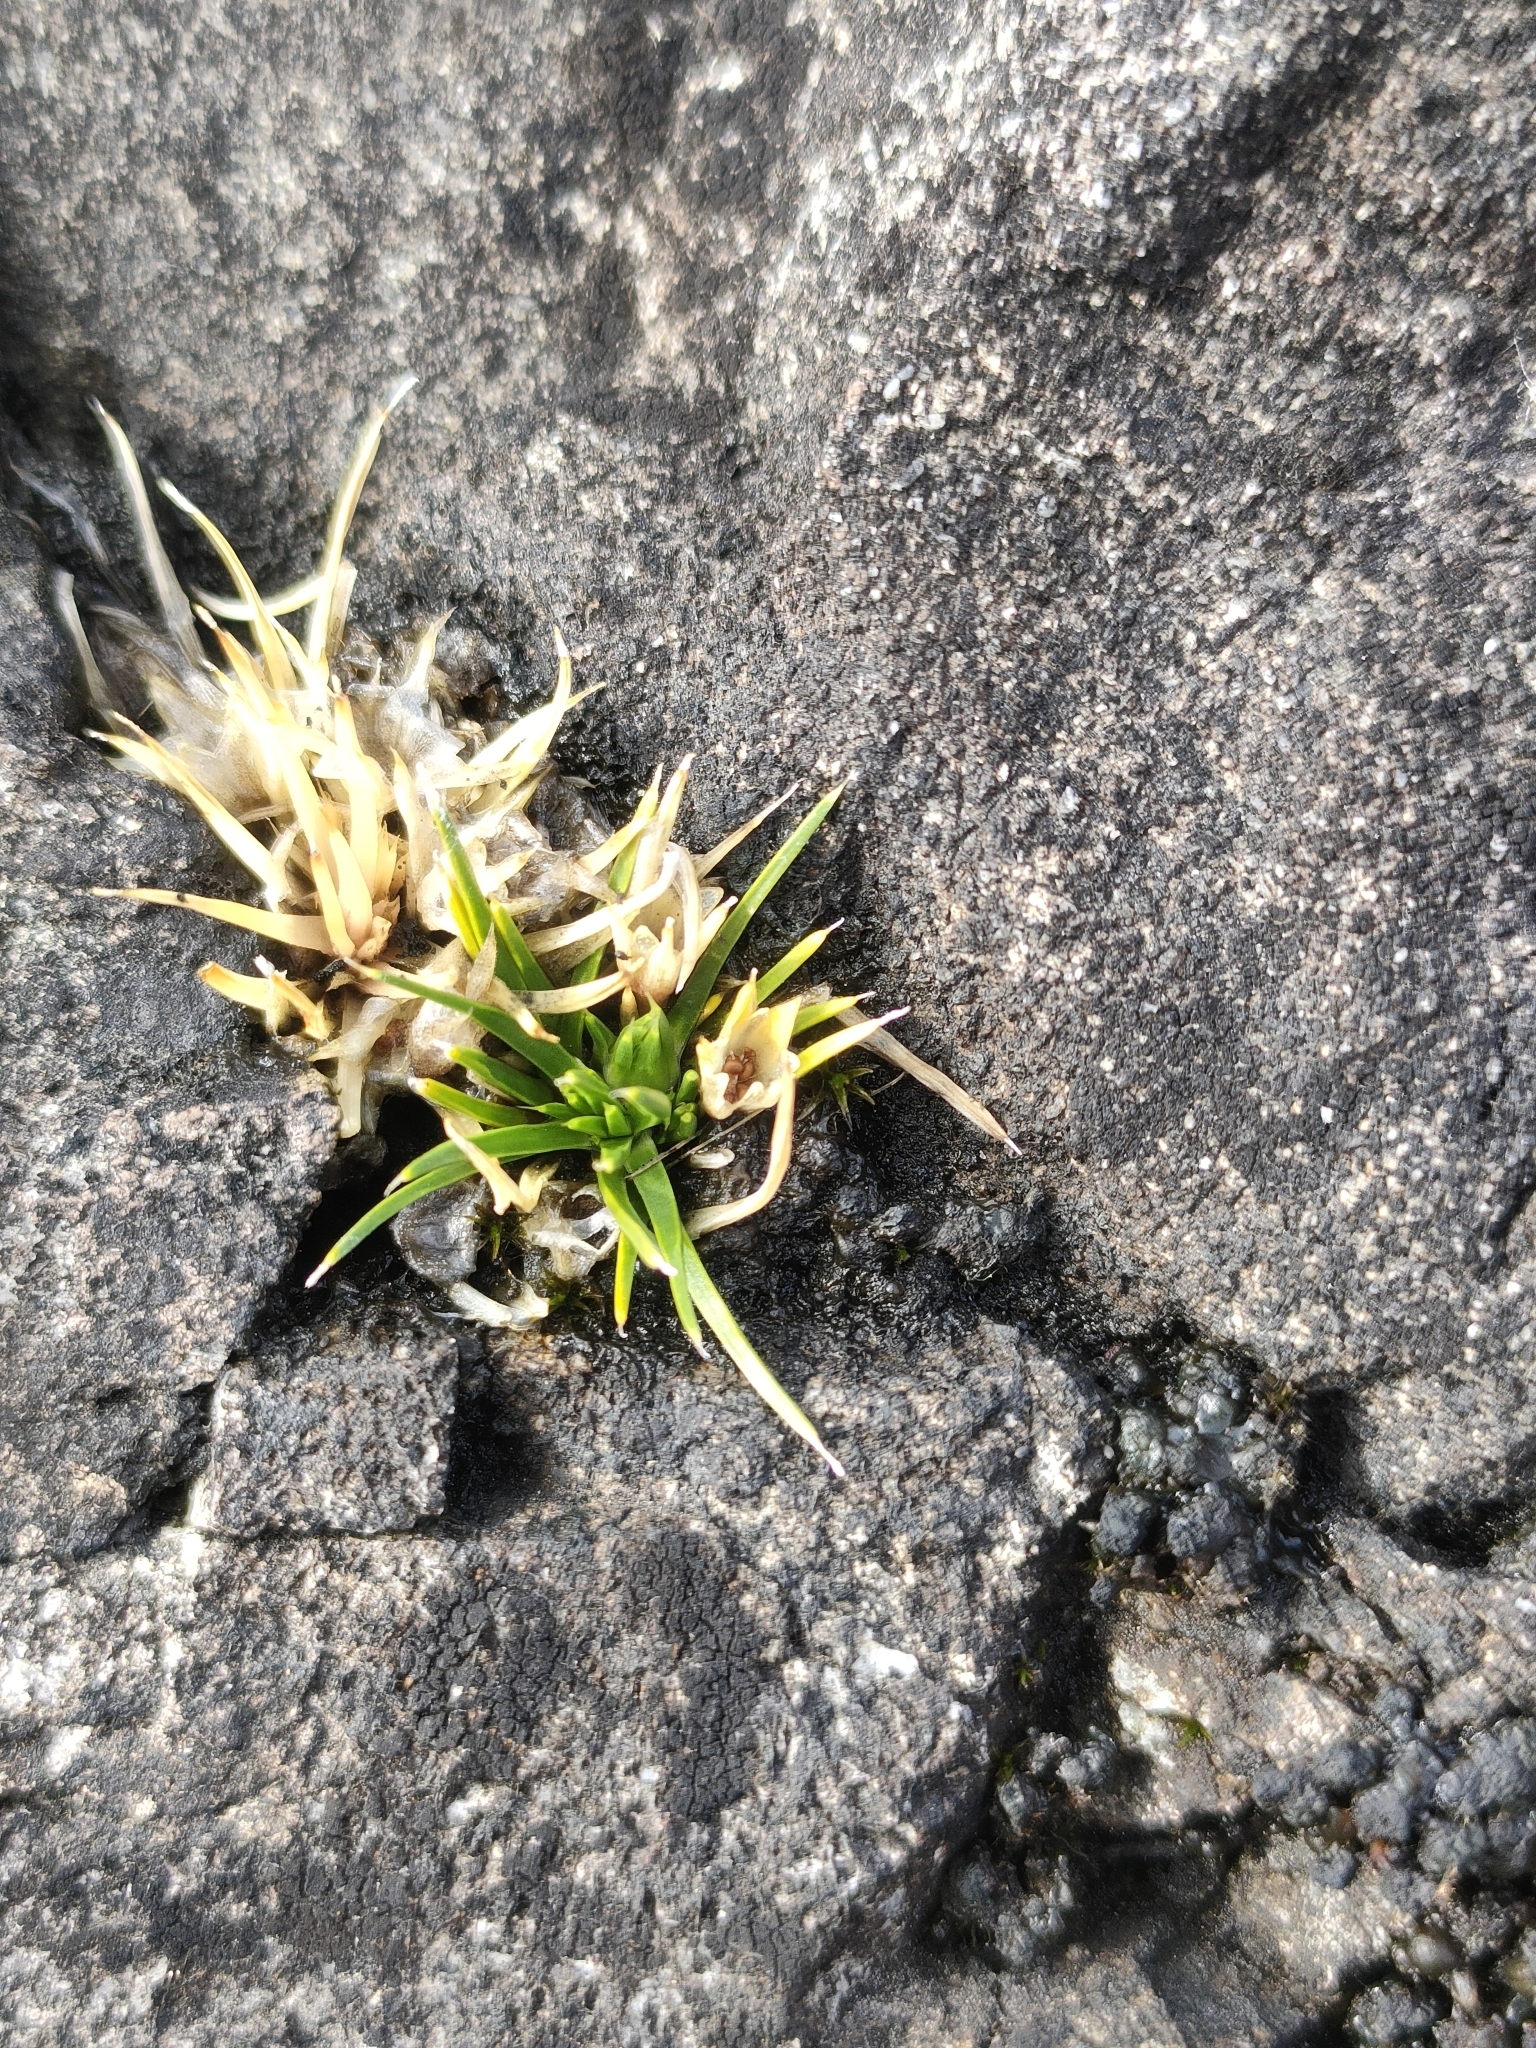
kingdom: Plantae
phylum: Tracheophyta
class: Magnoliopsida
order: Caryophyllales
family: Caryophyllaceae
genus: Colobanthus
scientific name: Colobanthus strictus
